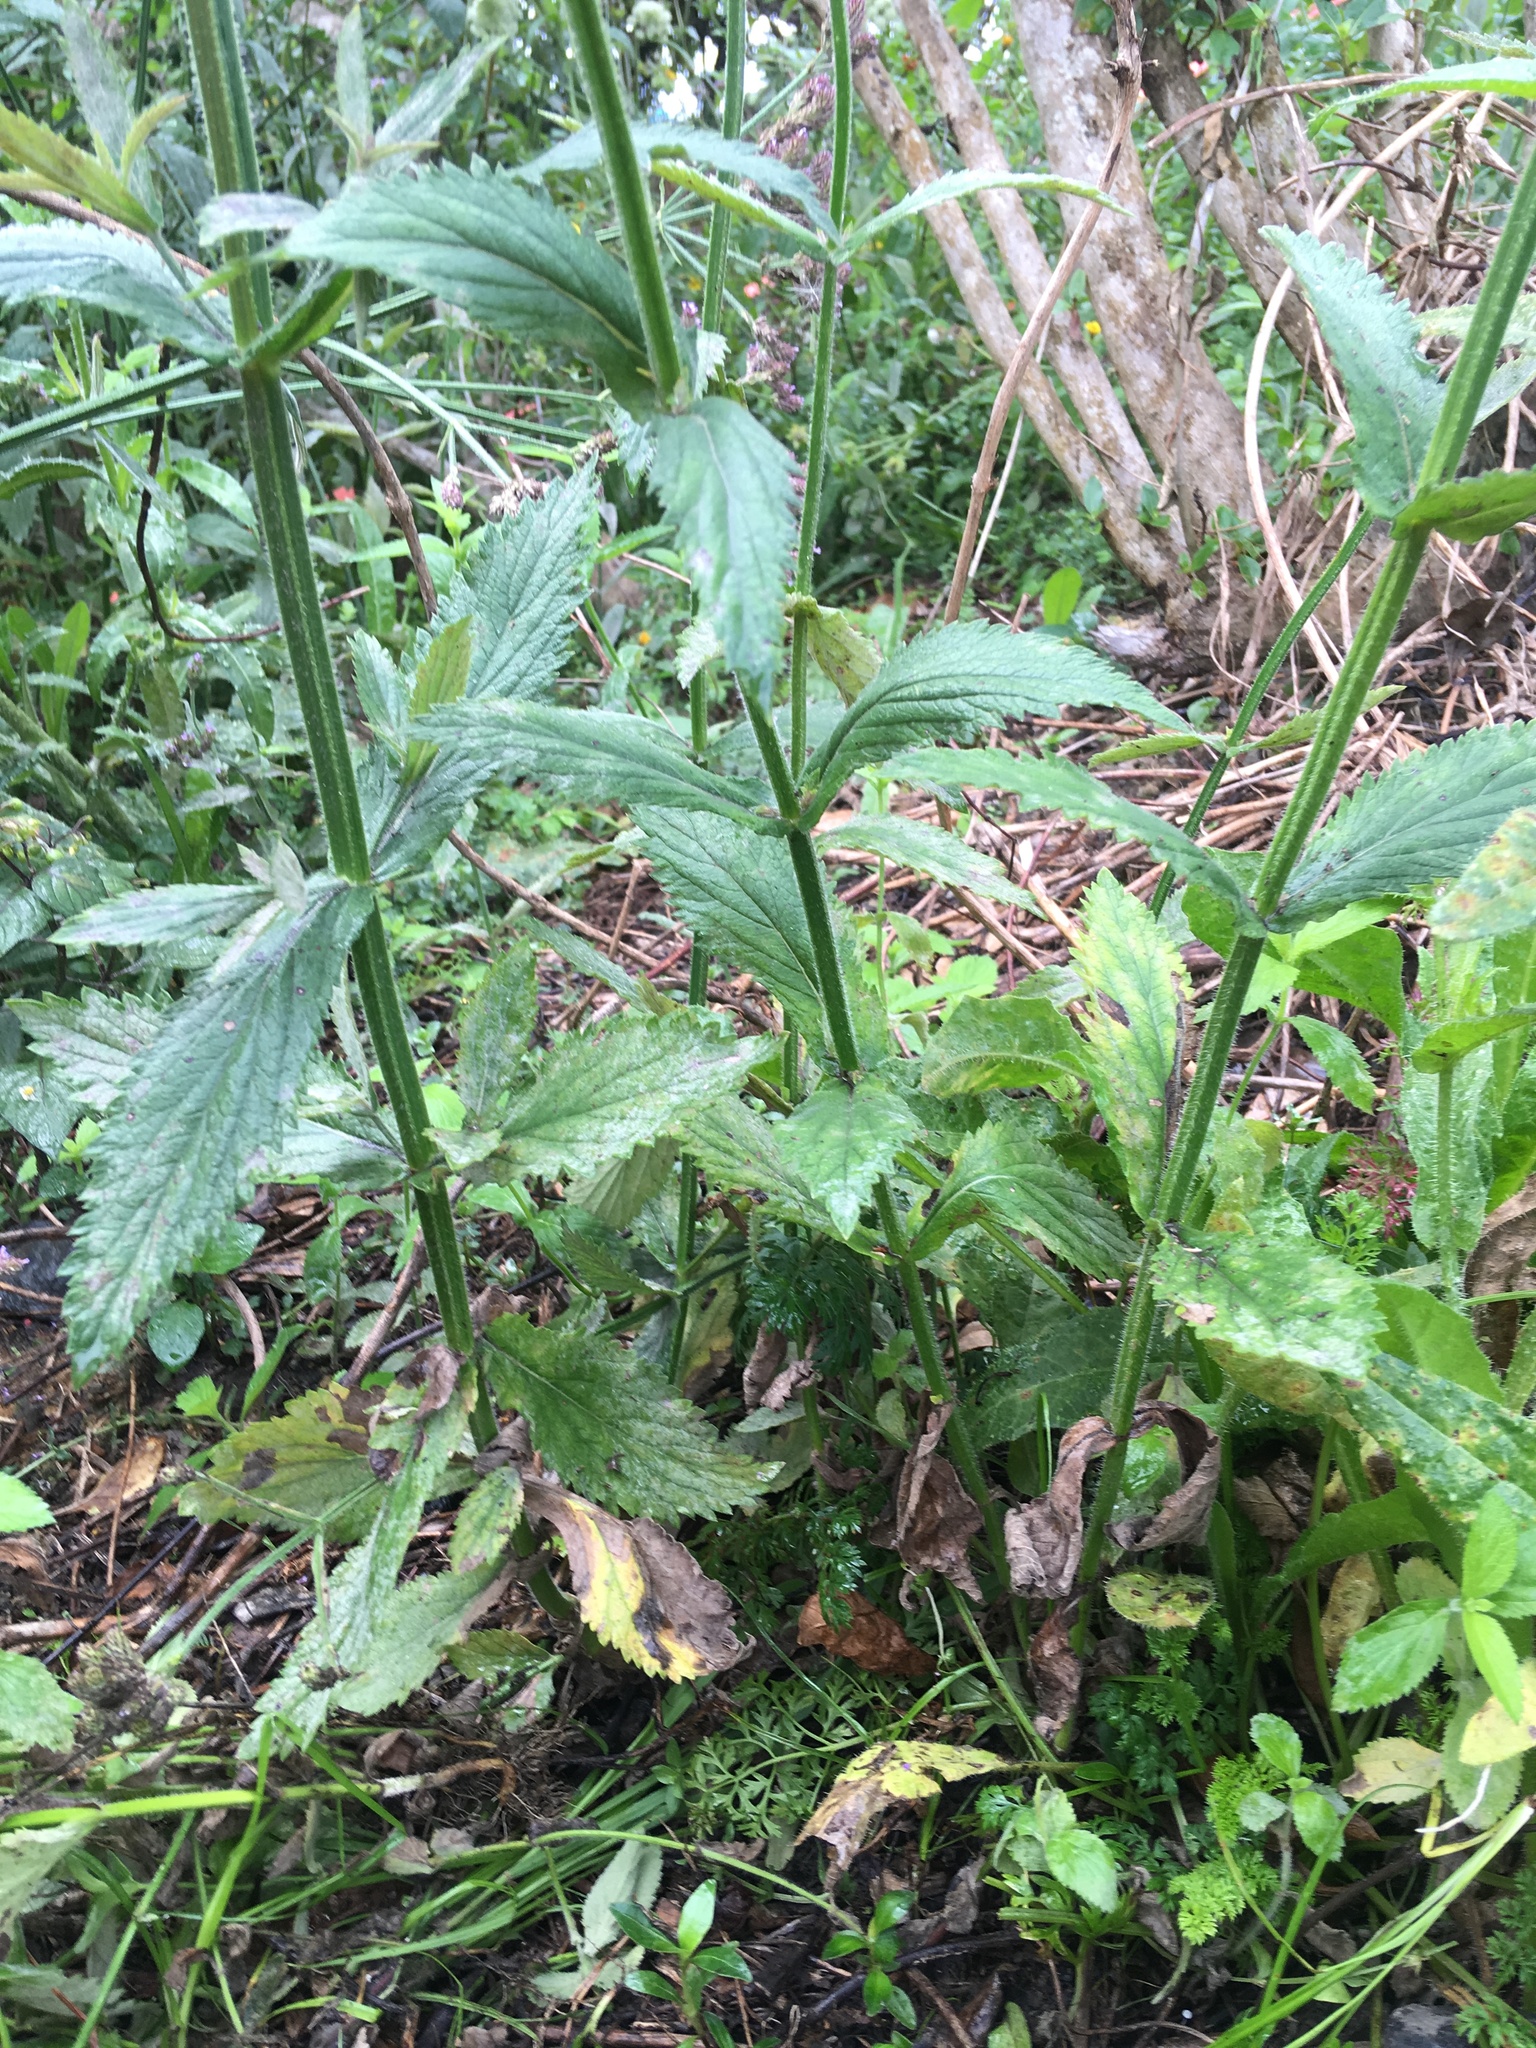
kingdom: Plantae
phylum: Tracheophyta
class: Magnoliopsida
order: Lamiales
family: Verbenaceae
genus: Verbena
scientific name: Verbena incompta
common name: Purpletop vervain
